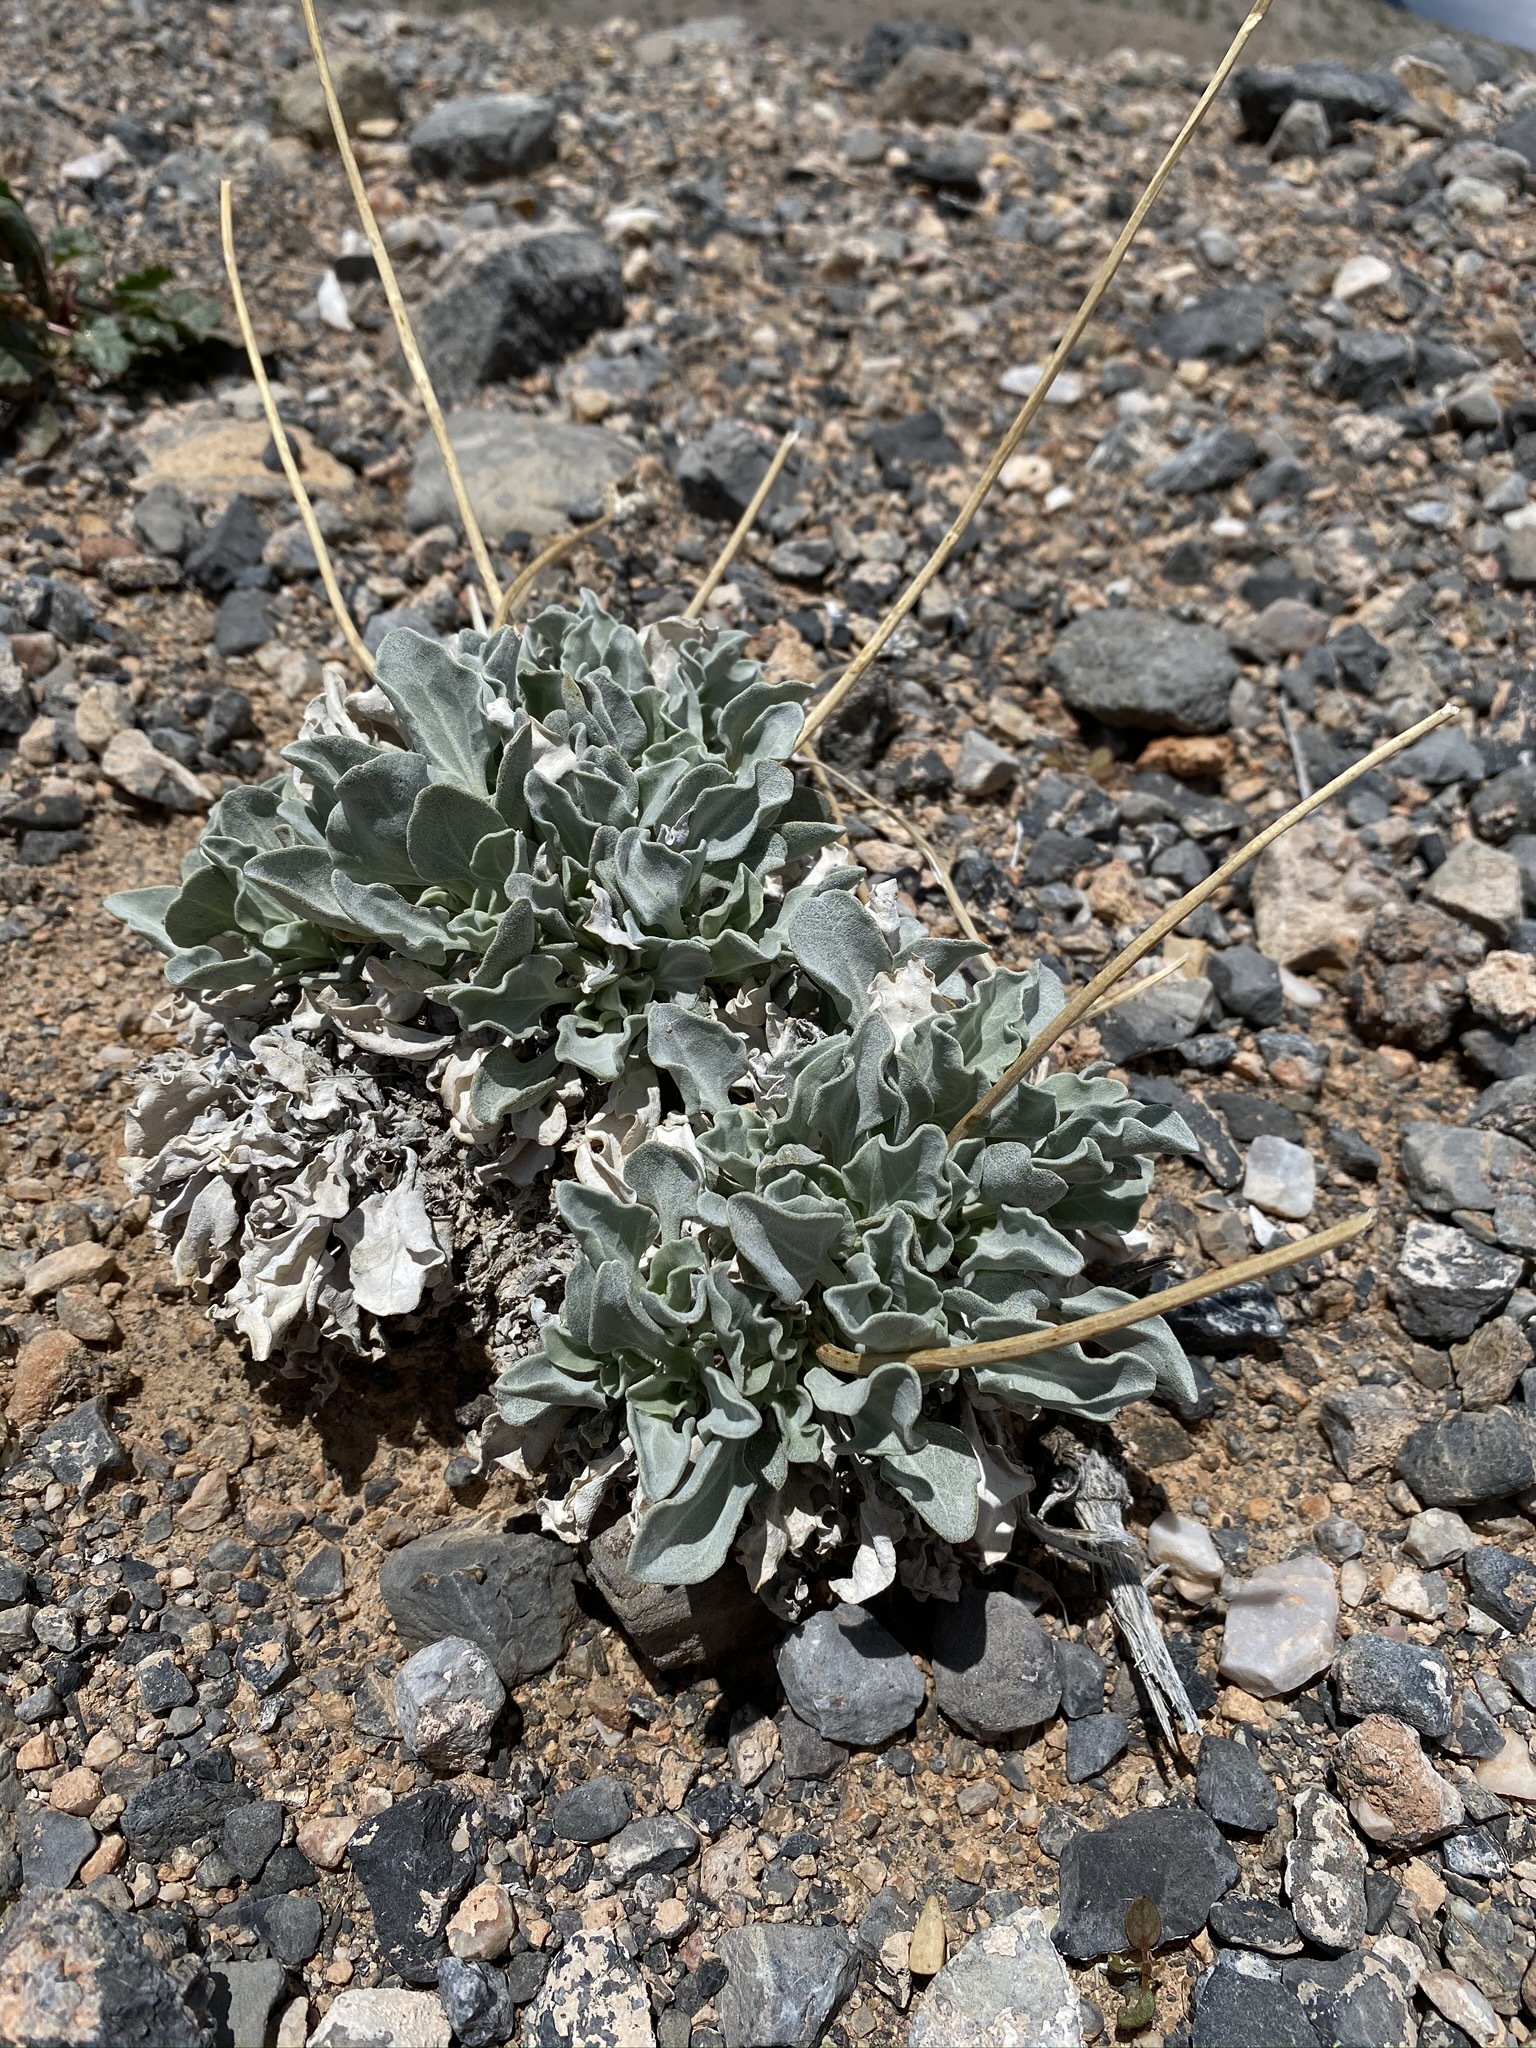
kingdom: Plantae
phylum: Tracheophyta
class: Magnoliopsida
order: Asterales
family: Asteraceae
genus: Enceliopsis
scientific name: Enceliopsis nudicaulis
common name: Naked-stem daisy
